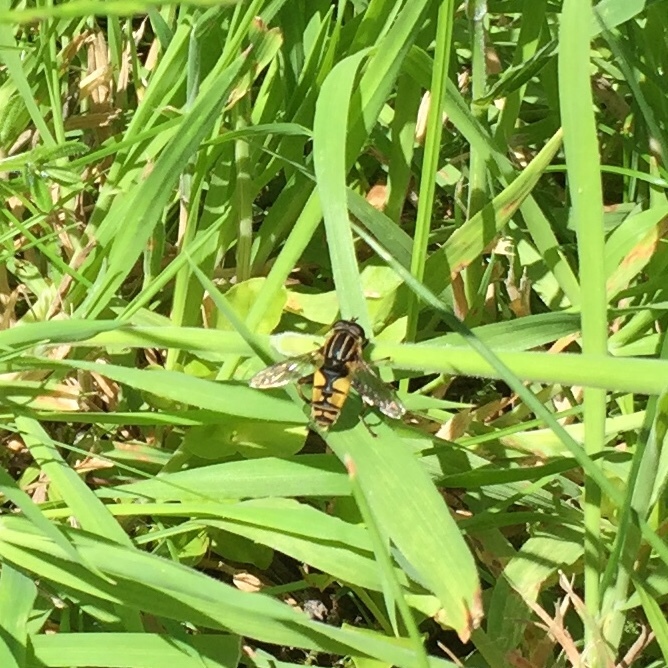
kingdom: Animalia
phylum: Arthropoda
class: Insecta
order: Diptera
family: Syrphidae
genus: Helophilus
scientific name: Helophilus pendulus
